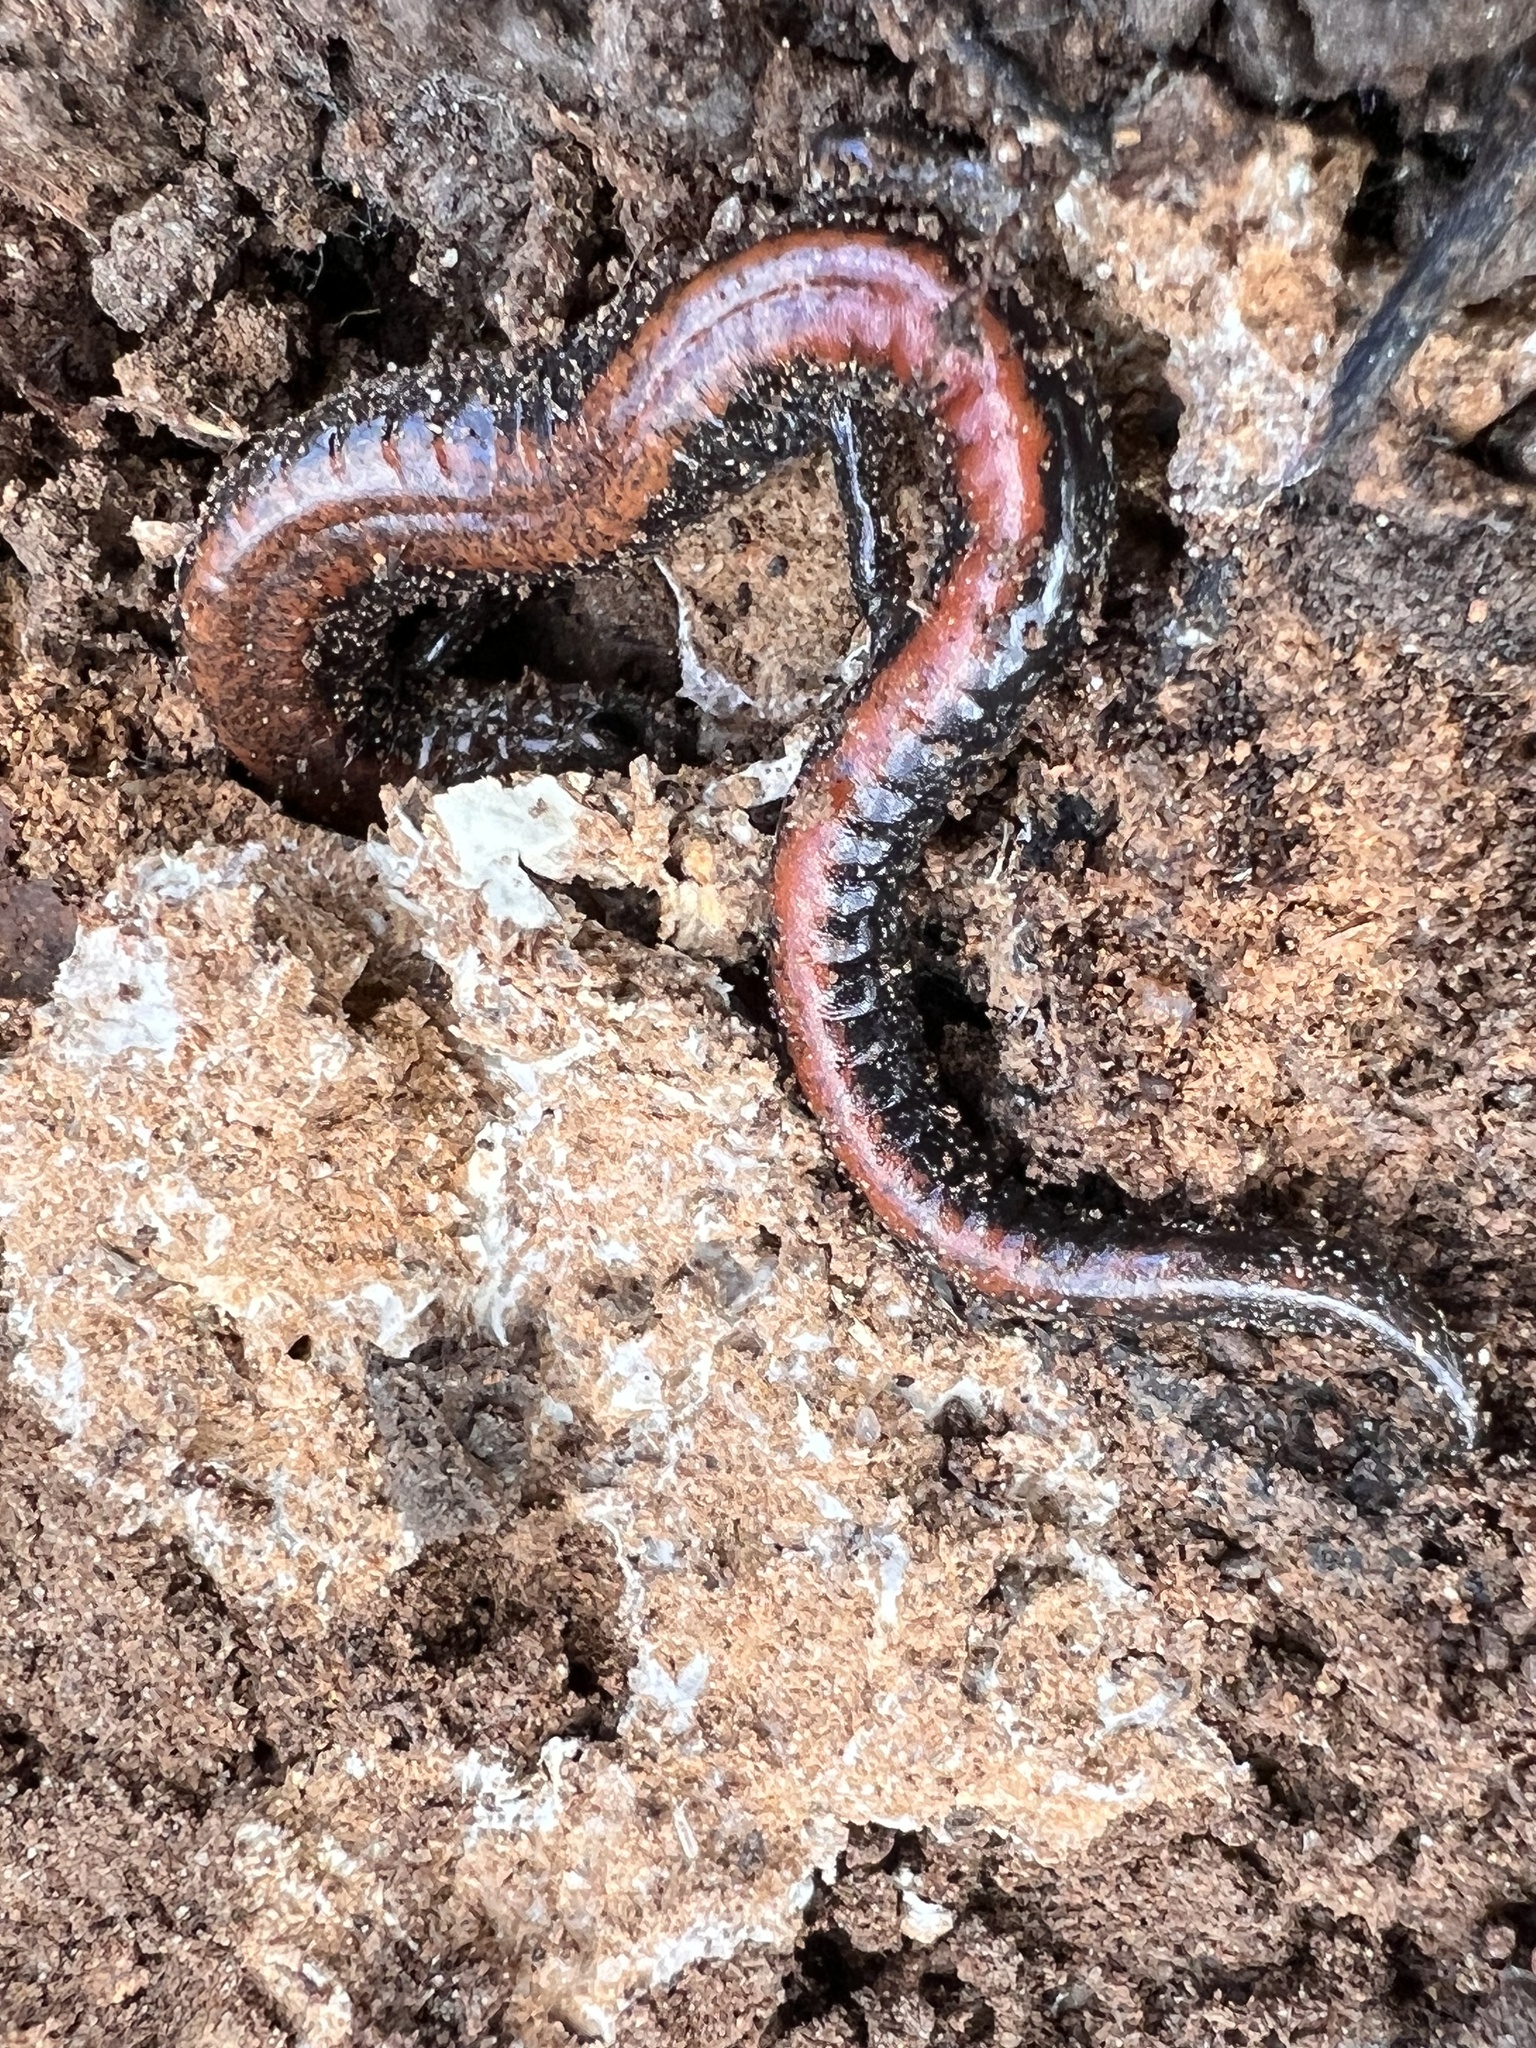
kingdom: Animalia
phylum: Chordata
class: Amphibia
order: Caudata
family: Plethodontidae
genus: Plethodon
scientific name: Plethodon cinereus
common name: Redback salamander
